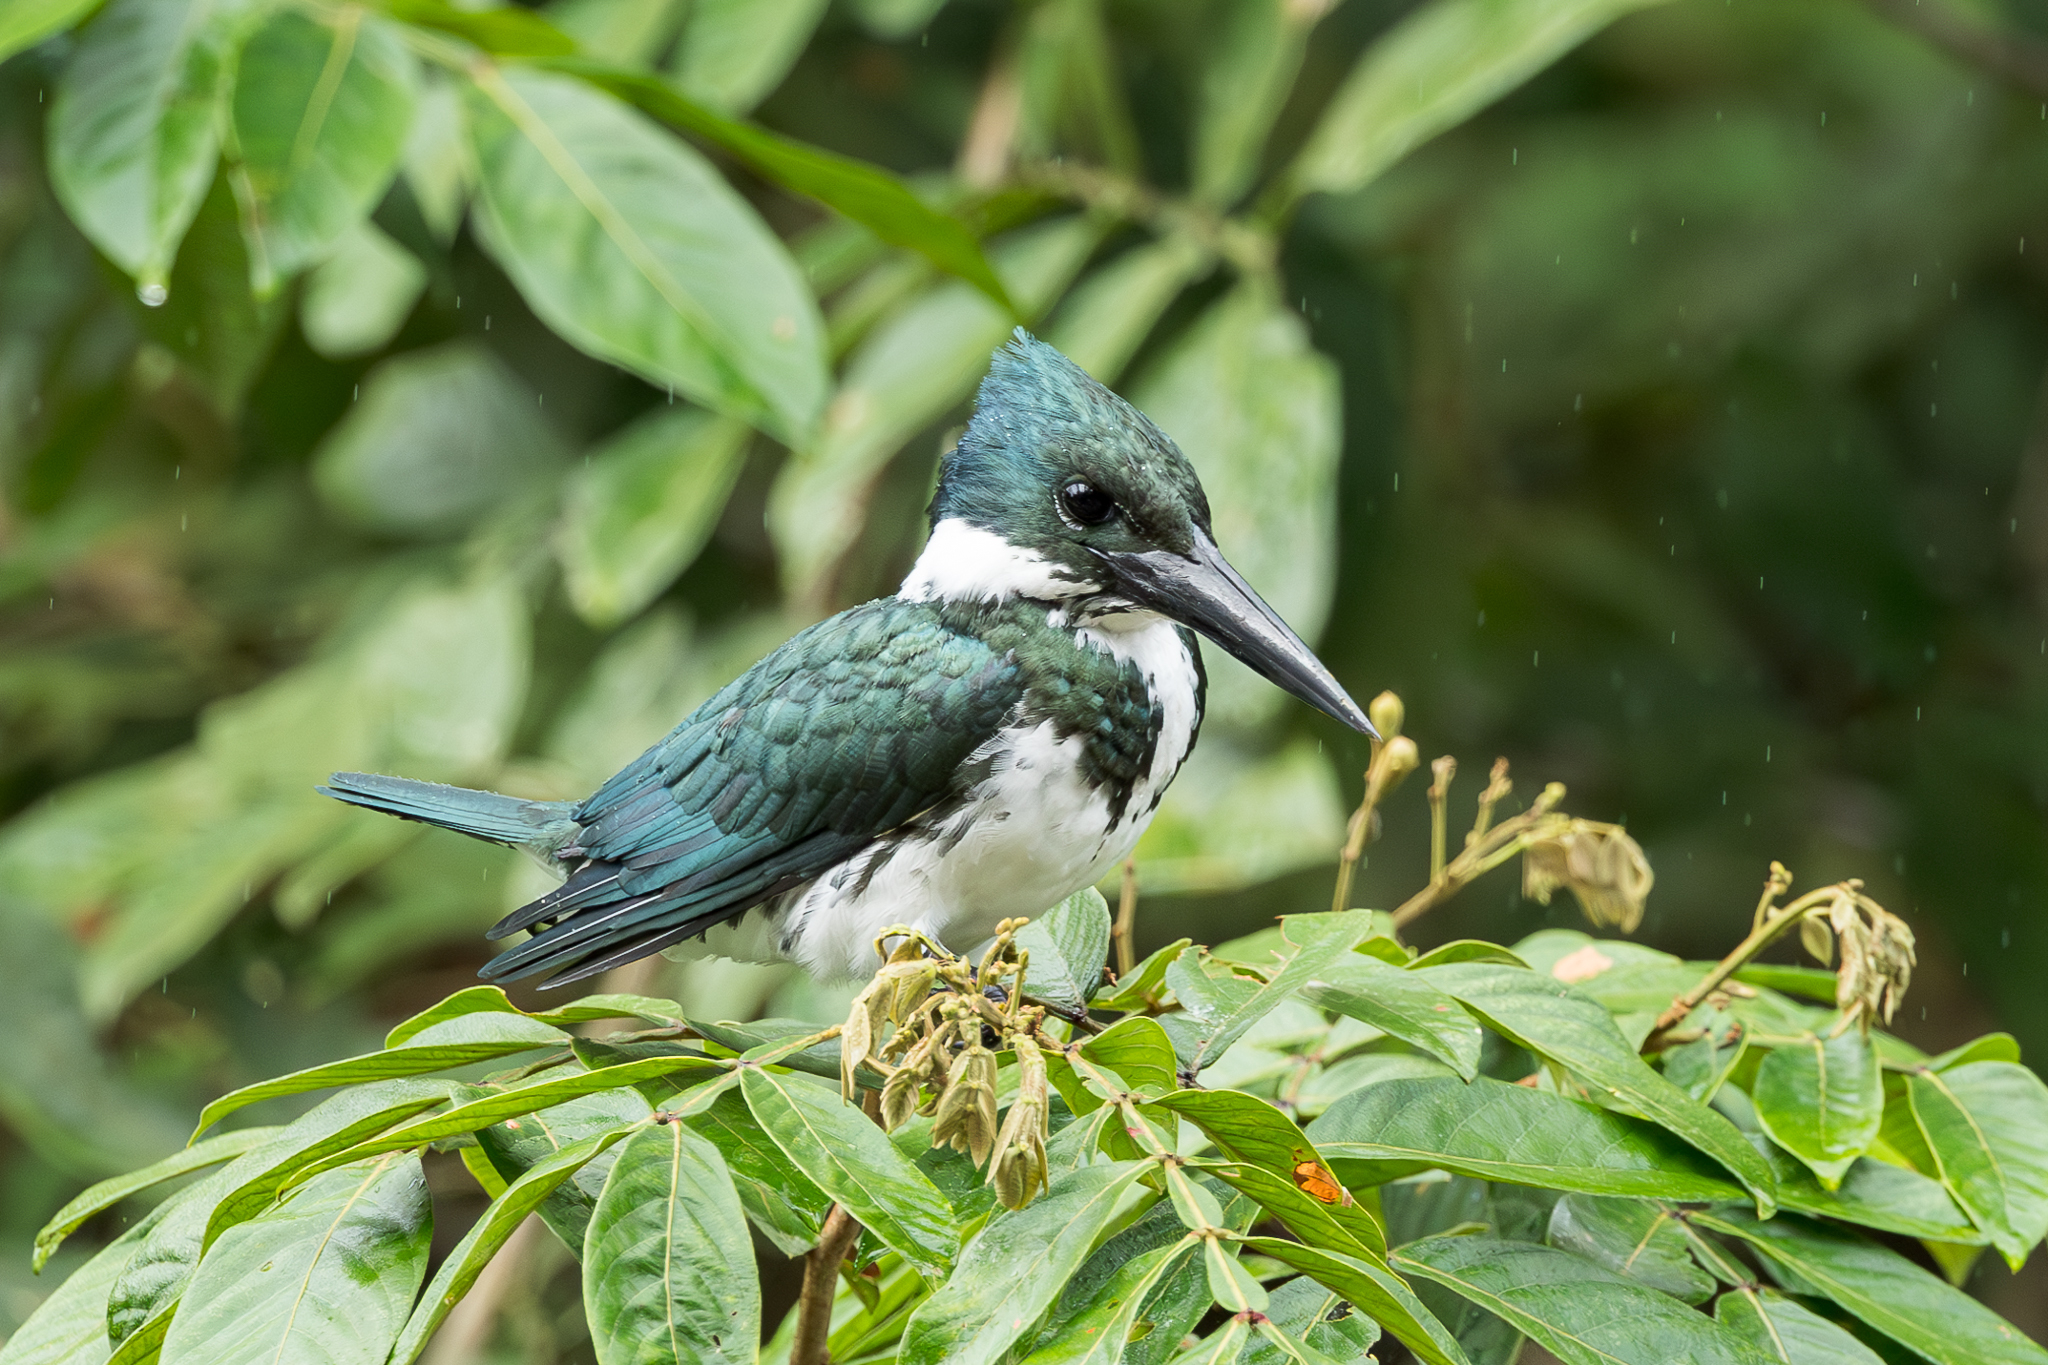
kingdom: Animalia
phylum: Chordata
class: Aves
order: Coraciiformes
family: Alcedinidae
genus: Chloroceryle
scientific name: Chloroceryle amazona
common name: Amazon kingfisher
